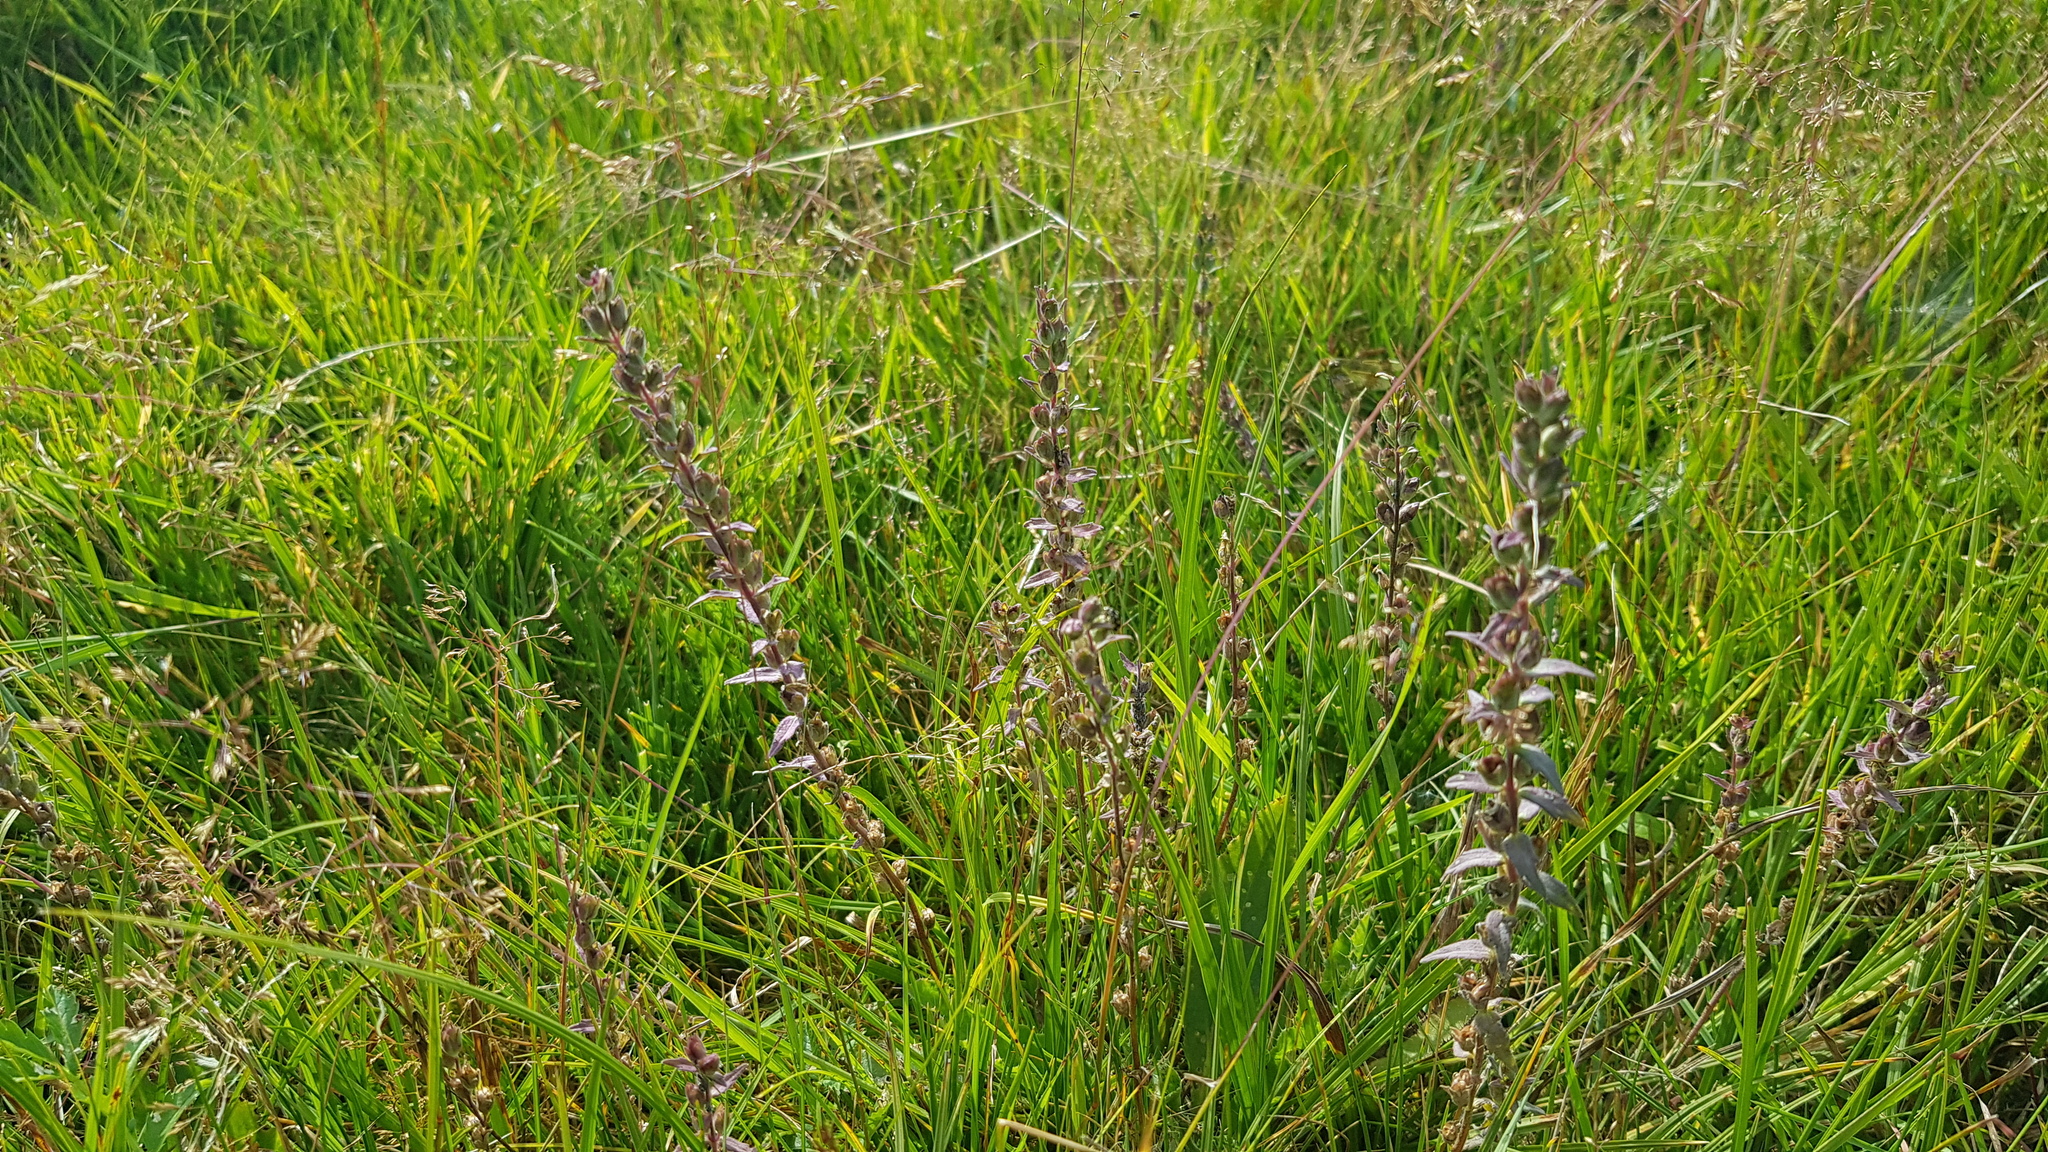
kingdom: Plantae
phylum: Tracheophyta
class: Magnoliopsida
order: Lamiales
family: Orobanchaceae
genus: Odontites
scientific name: Odontites vulgaris
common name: Broomrape
